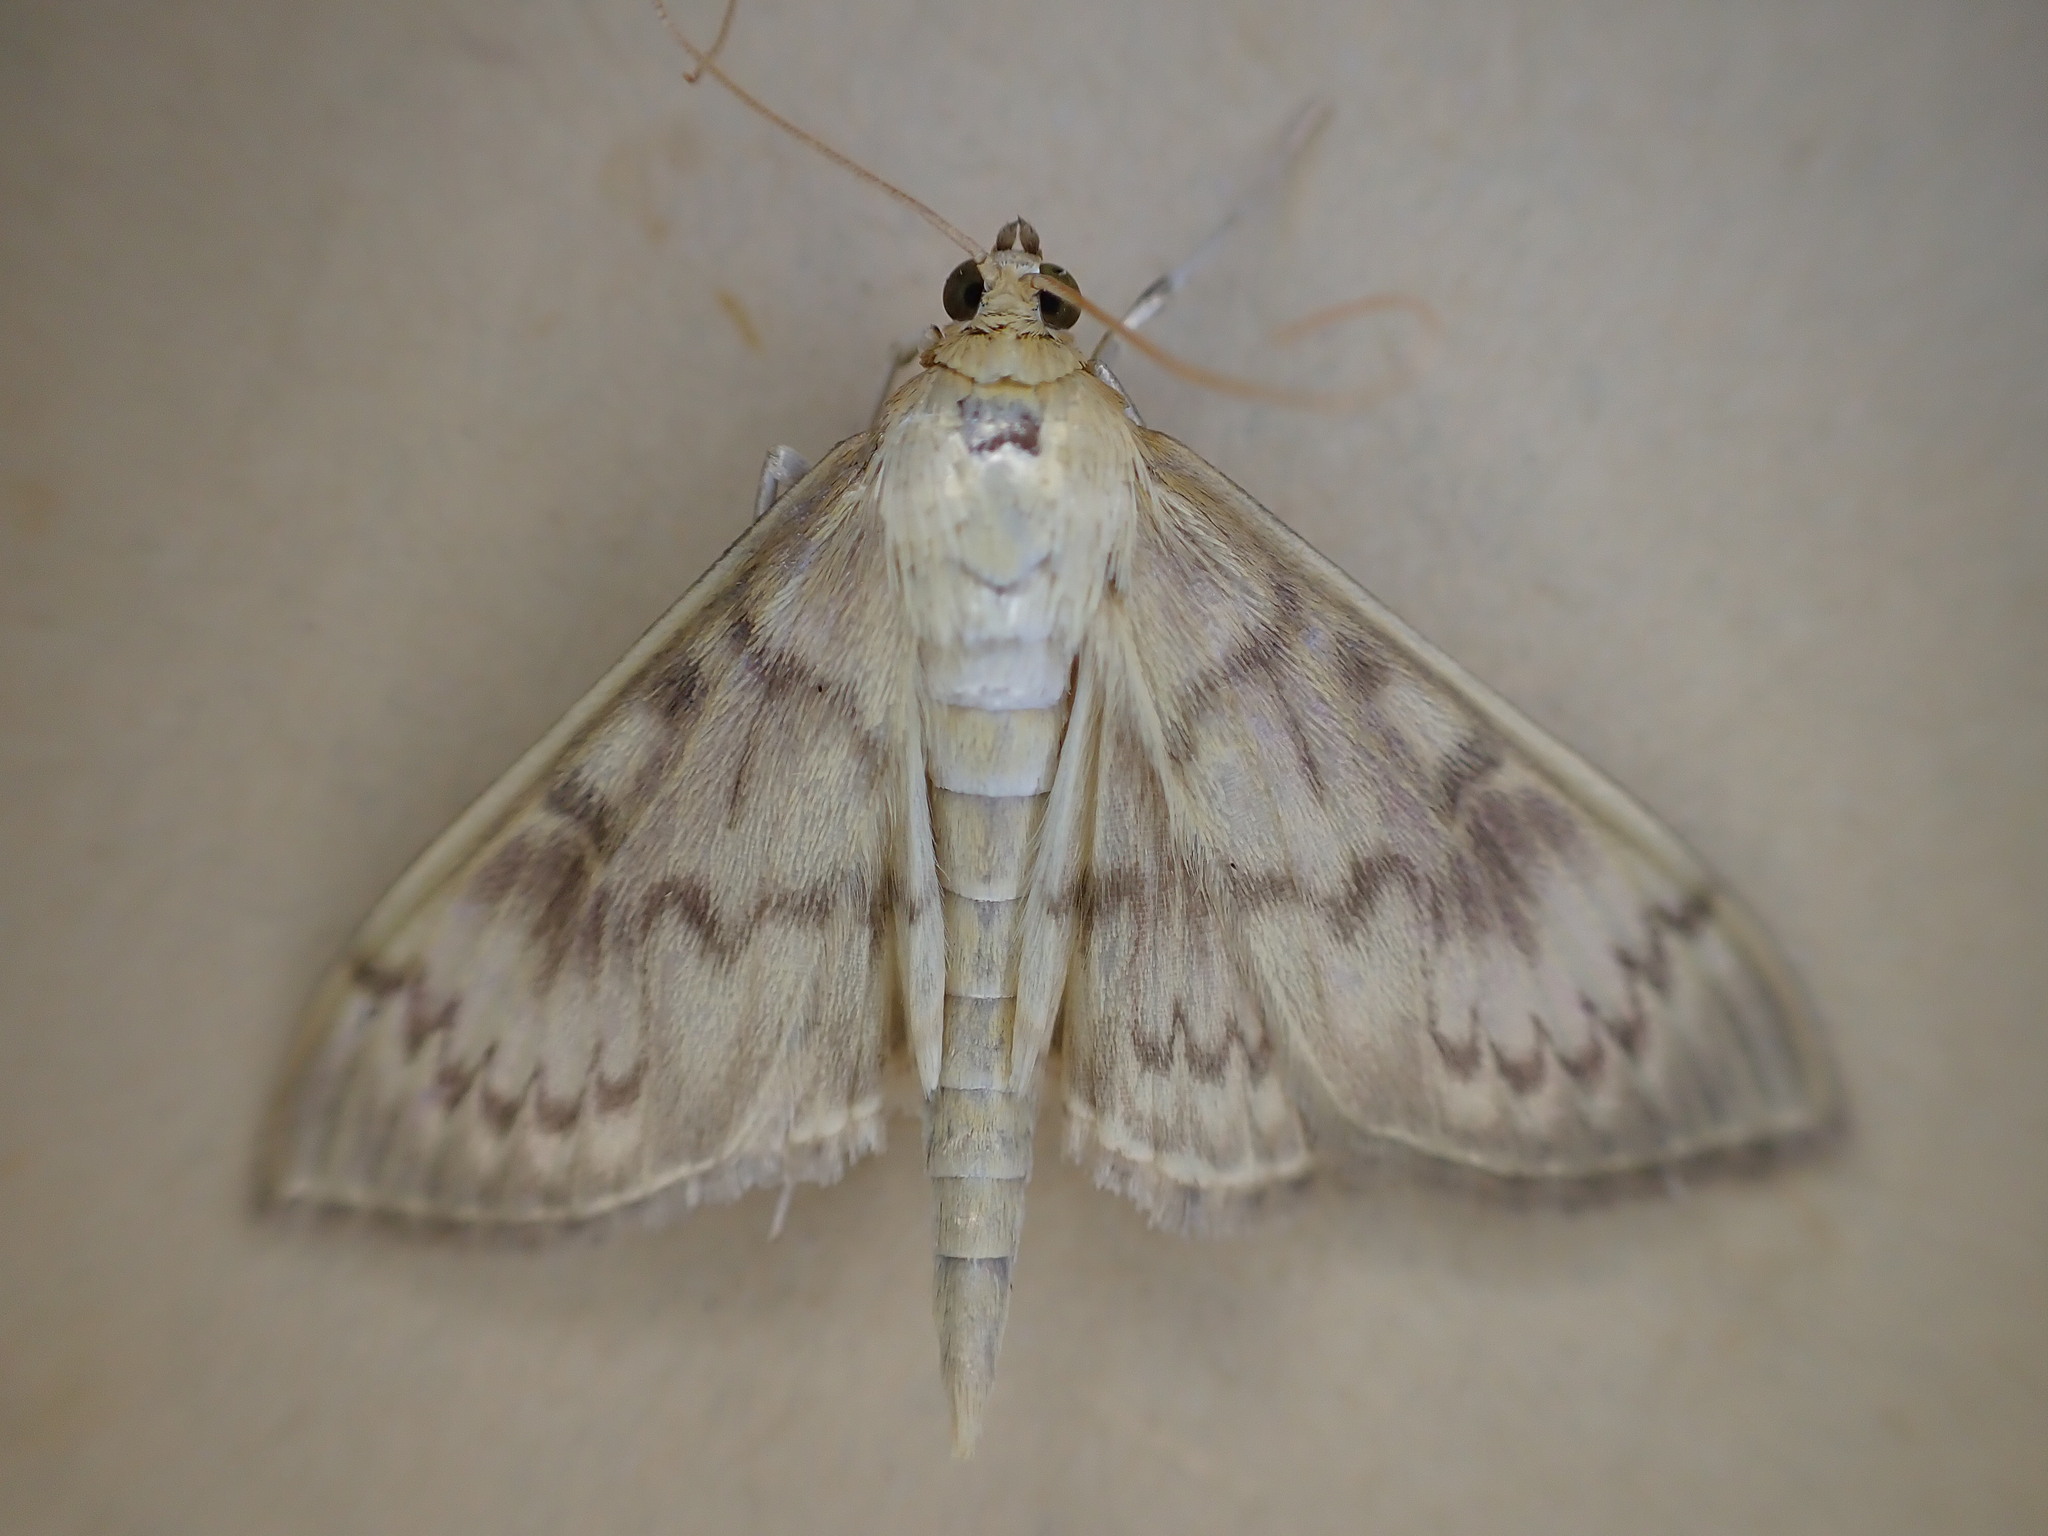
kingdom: Animalia
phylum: Arthropoda
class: Insecta
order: Lepidoptera
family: Crambidae
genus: Patania
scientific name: Patania ruralis
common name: Mother of pearl
